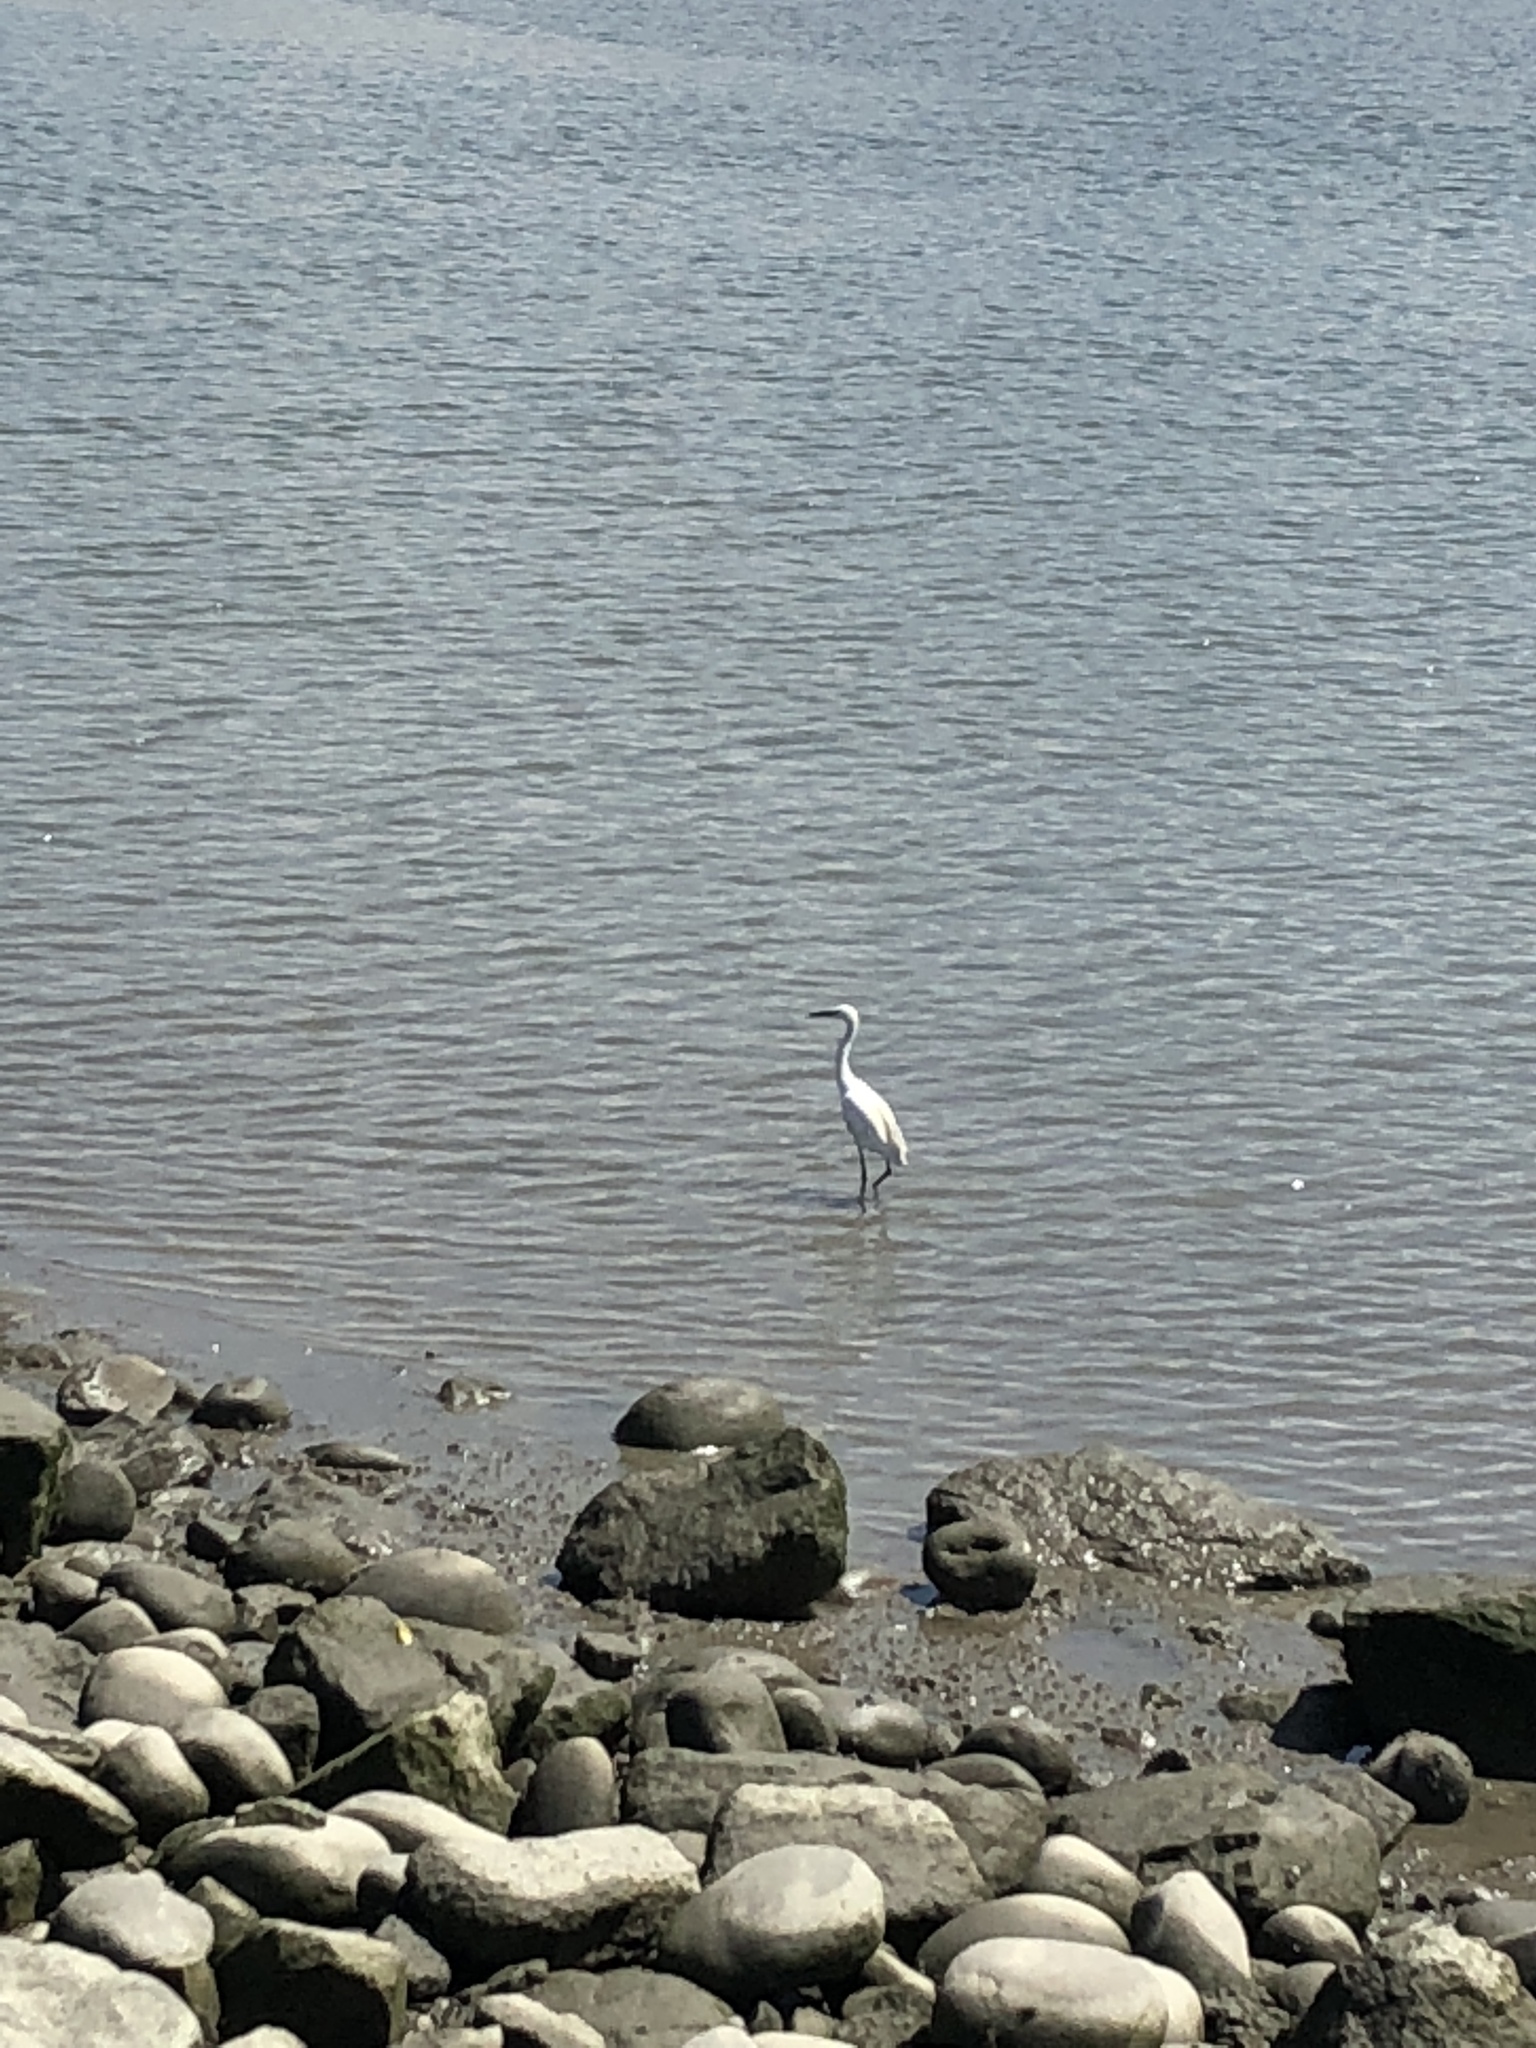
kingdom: Animalia
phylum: Chordata
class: Aves
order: Pelecaniformes
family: Ardeidae
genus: Egretta
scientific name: Egretta garzetta
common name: Little egret
